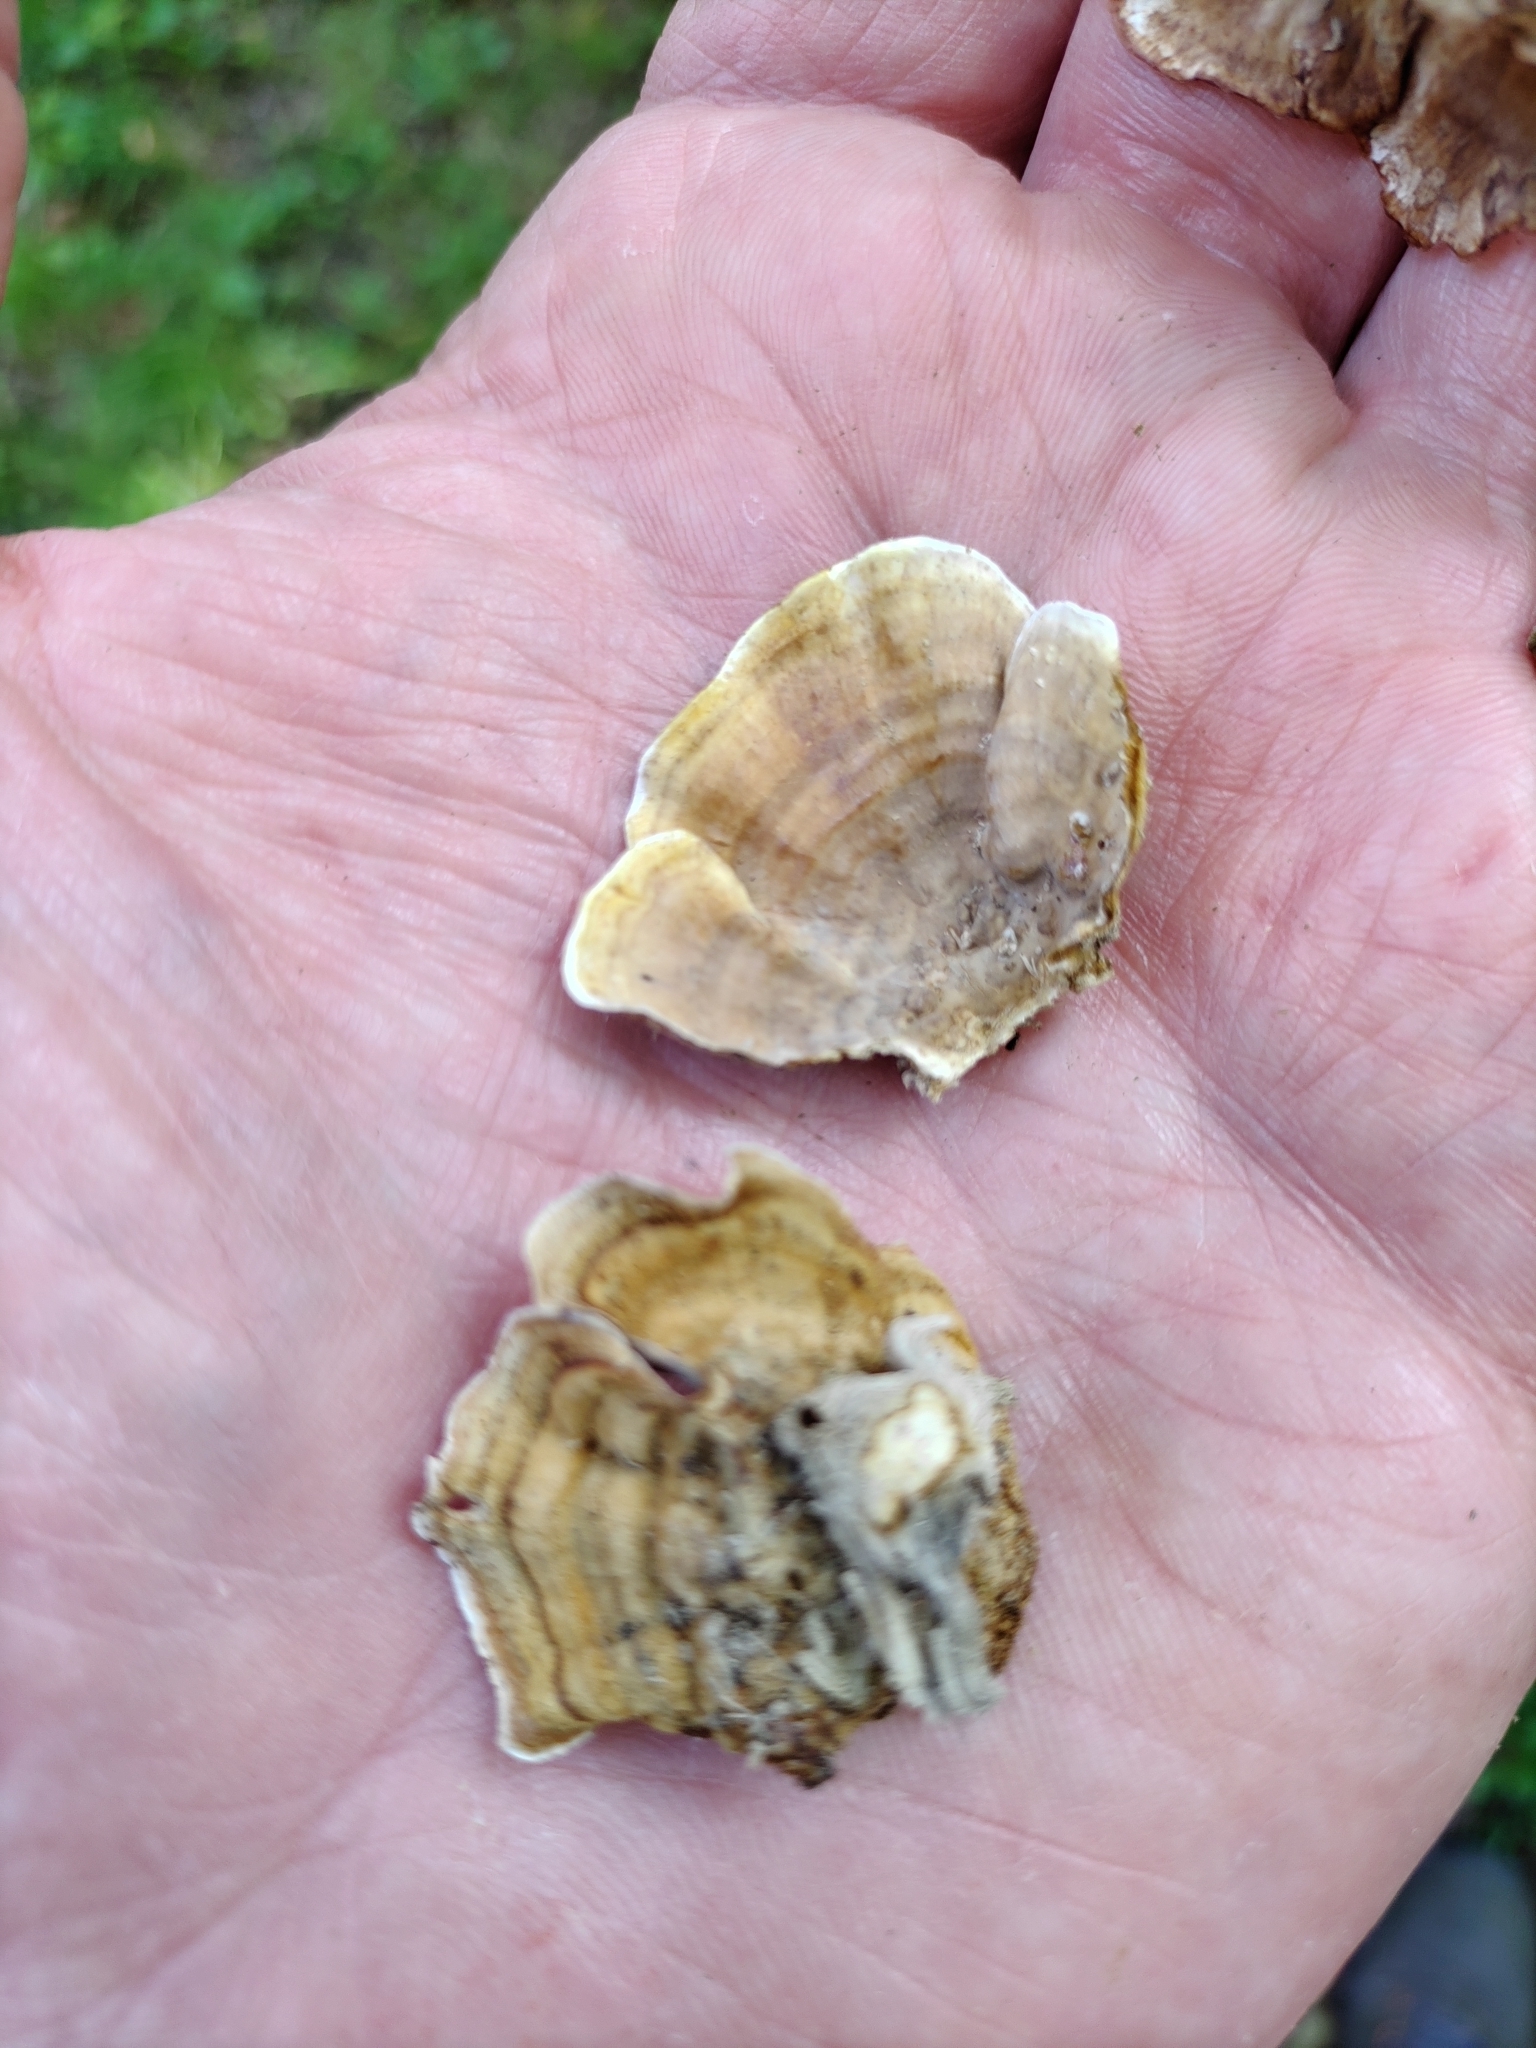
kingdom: Fungi
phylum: Basidiomycota
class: Agaricomycetes
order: Russulales
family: Stereaceae
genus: Stereum
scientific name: Stereum lobatum
